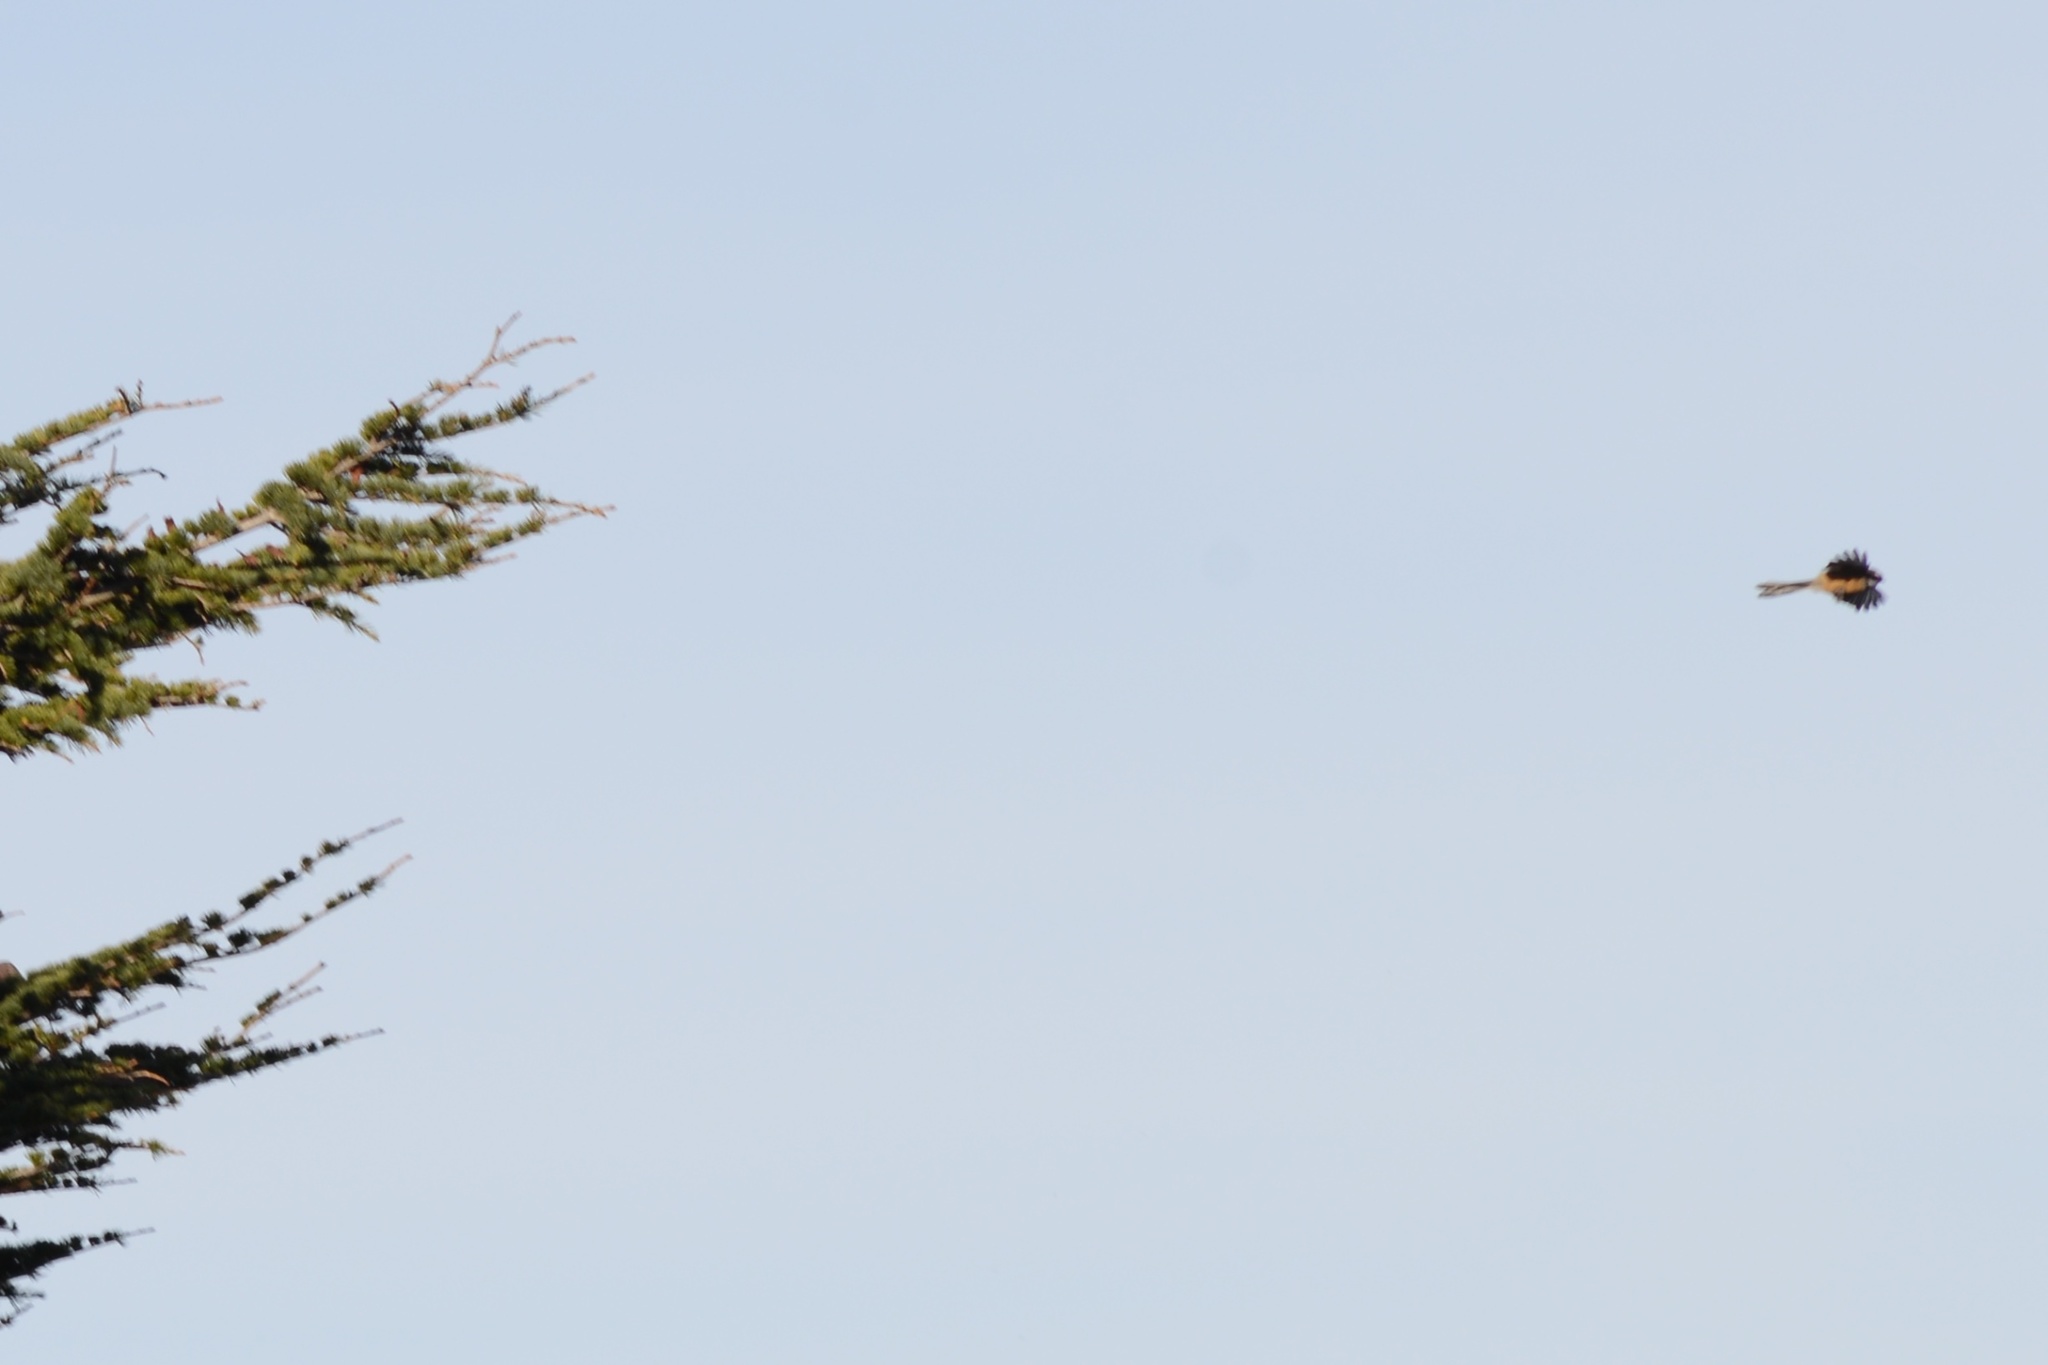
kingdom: Animalia
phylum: Chordata
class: Aves
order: Passeriformes
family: Rhipiduridae
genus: Rhipidura
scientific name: Rhipidura fuliginosa
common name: New zealand fantail
